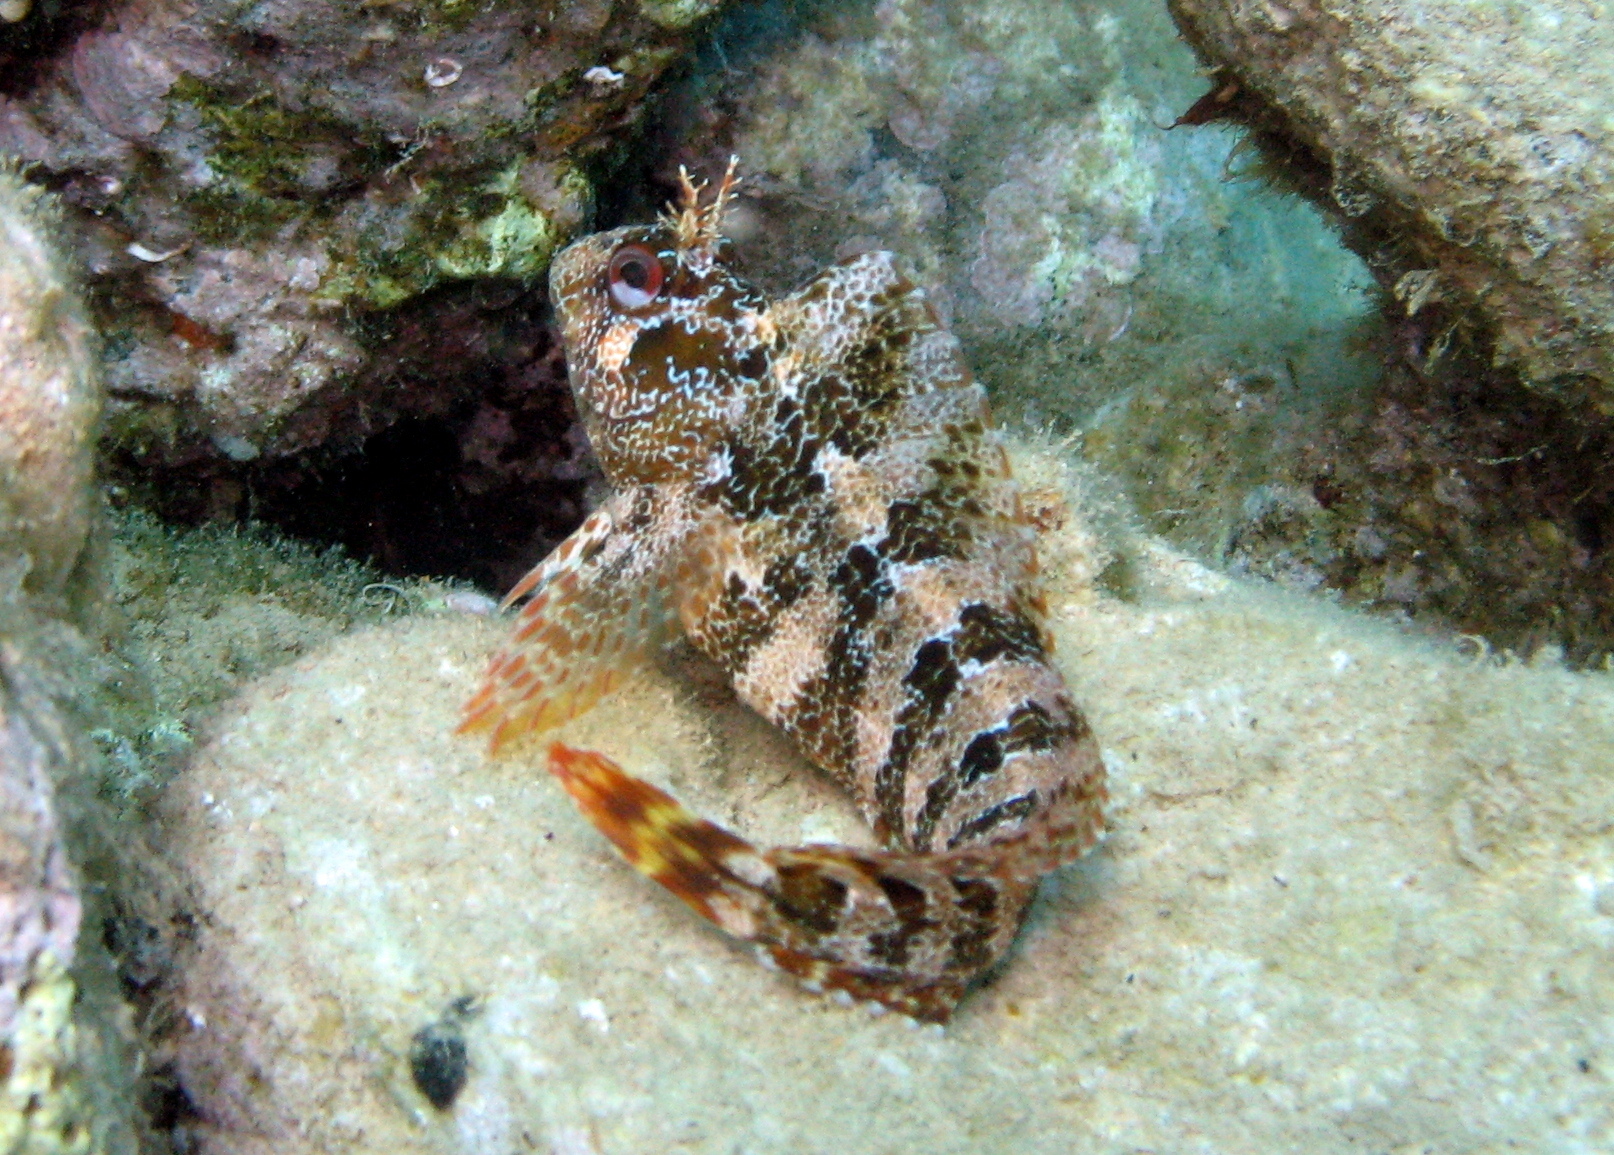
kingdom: Animalia
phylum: Chordata
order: Perciformes
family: Blenniidae
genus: Parablennius
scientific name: Parablennius gattorugine
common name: Tompot blenny
